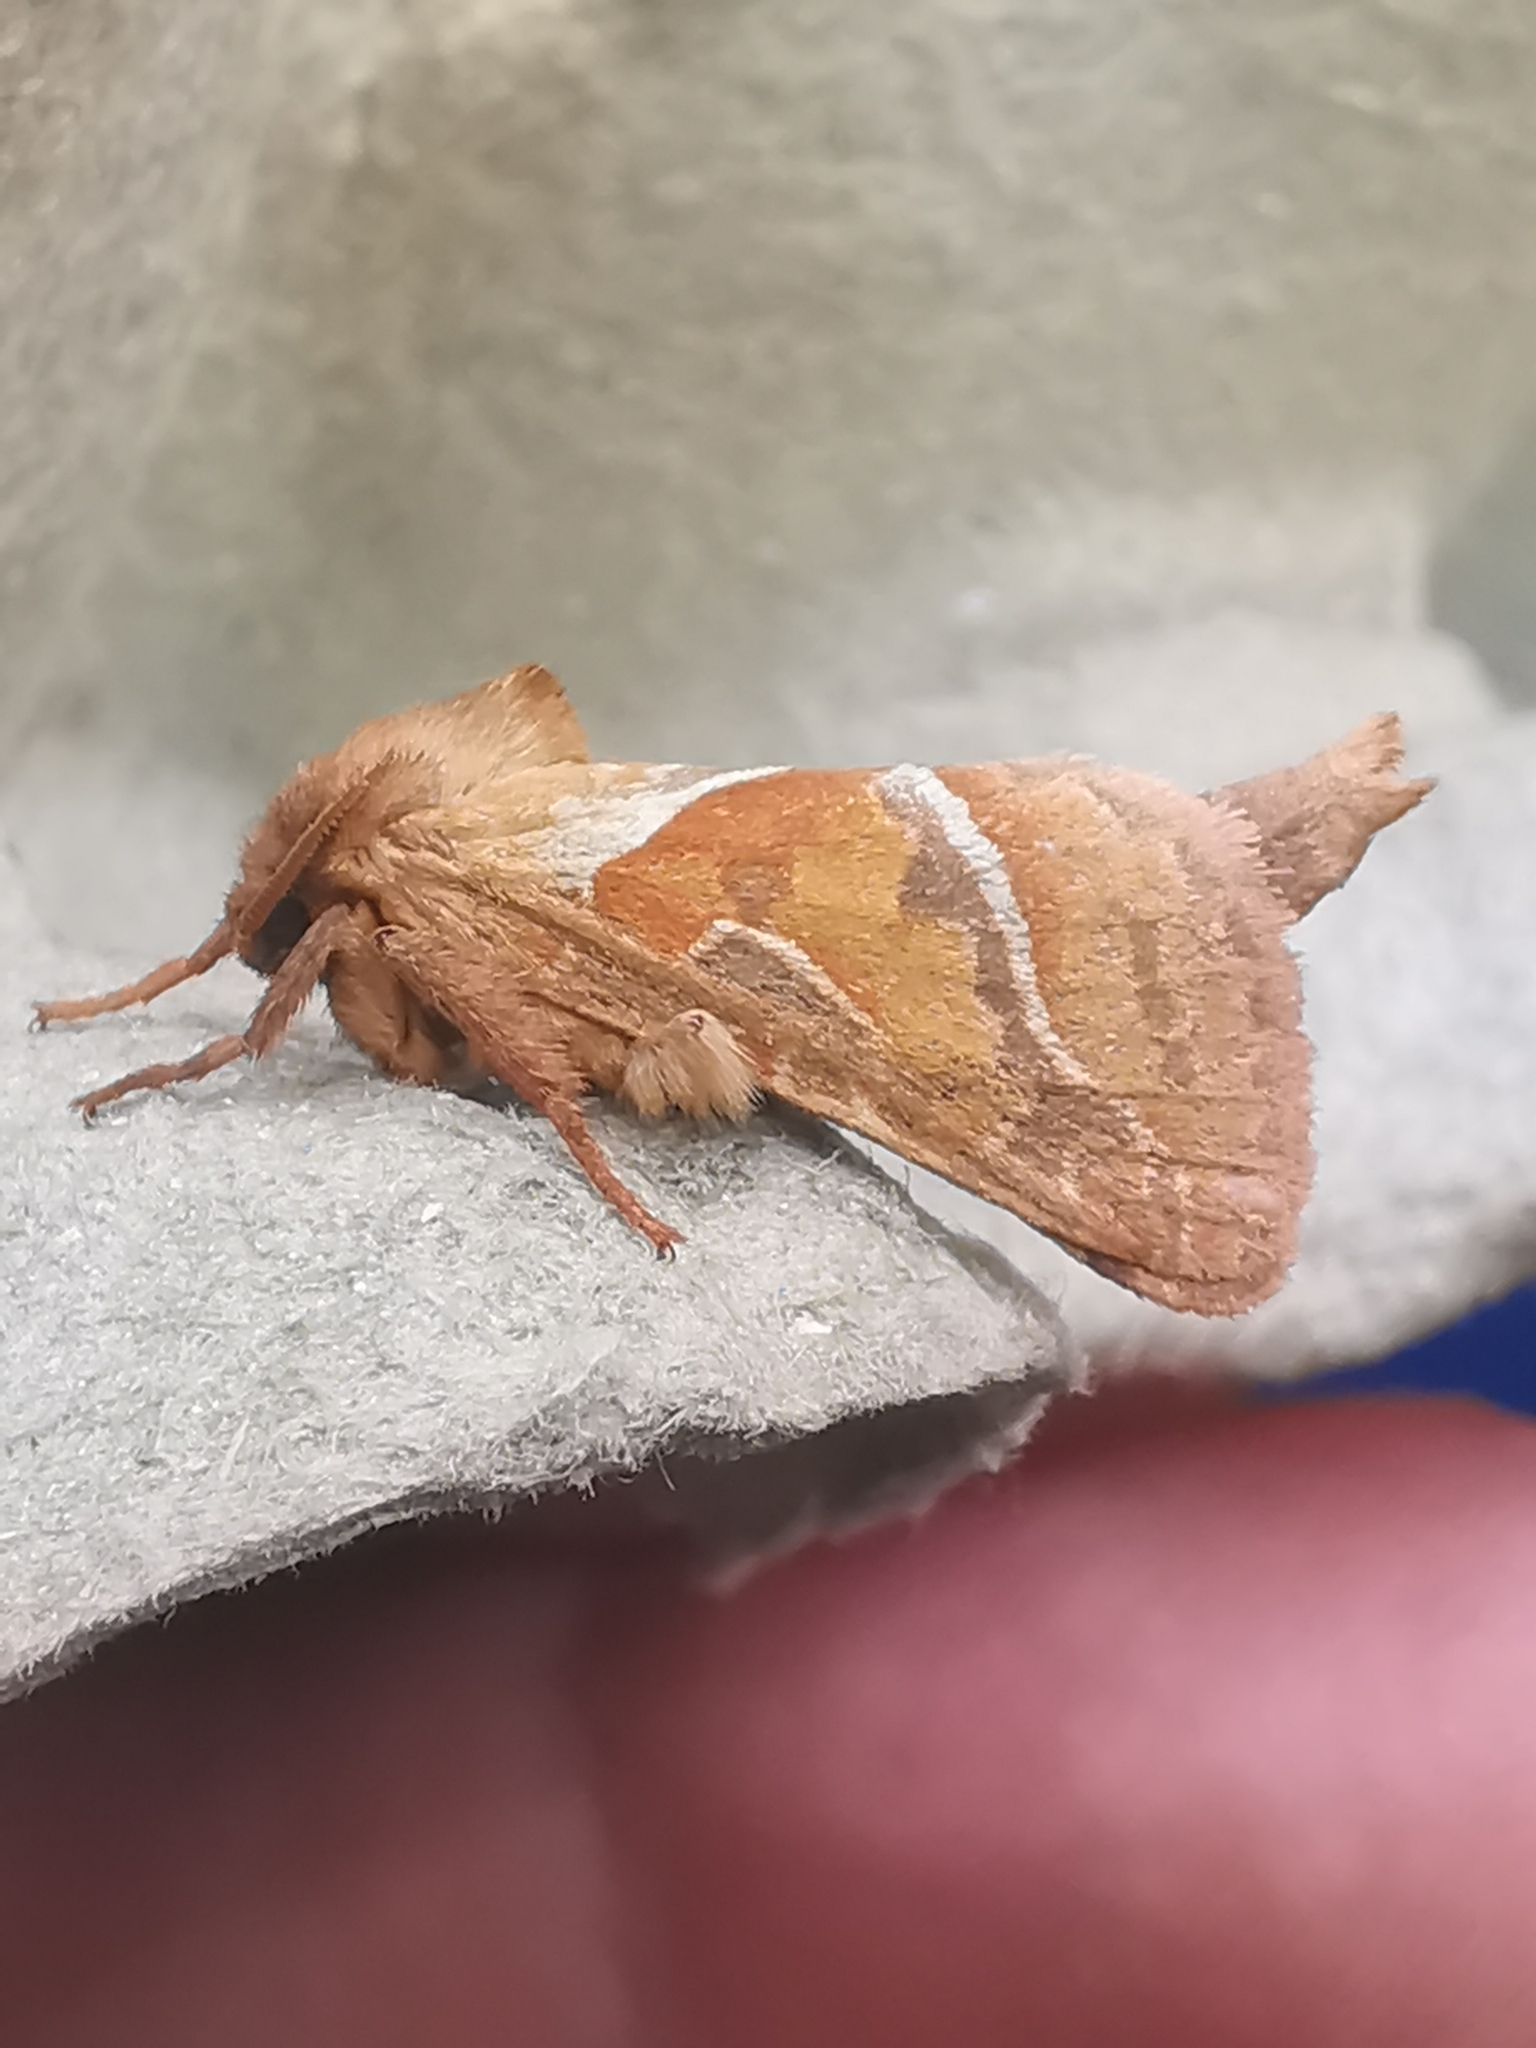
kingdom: Animalia
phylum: Arthropoda
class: Insecta
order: Lepidoptera
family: Hepialidae
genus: Triodia
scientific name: Triodia sylvina
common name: Orange swift
